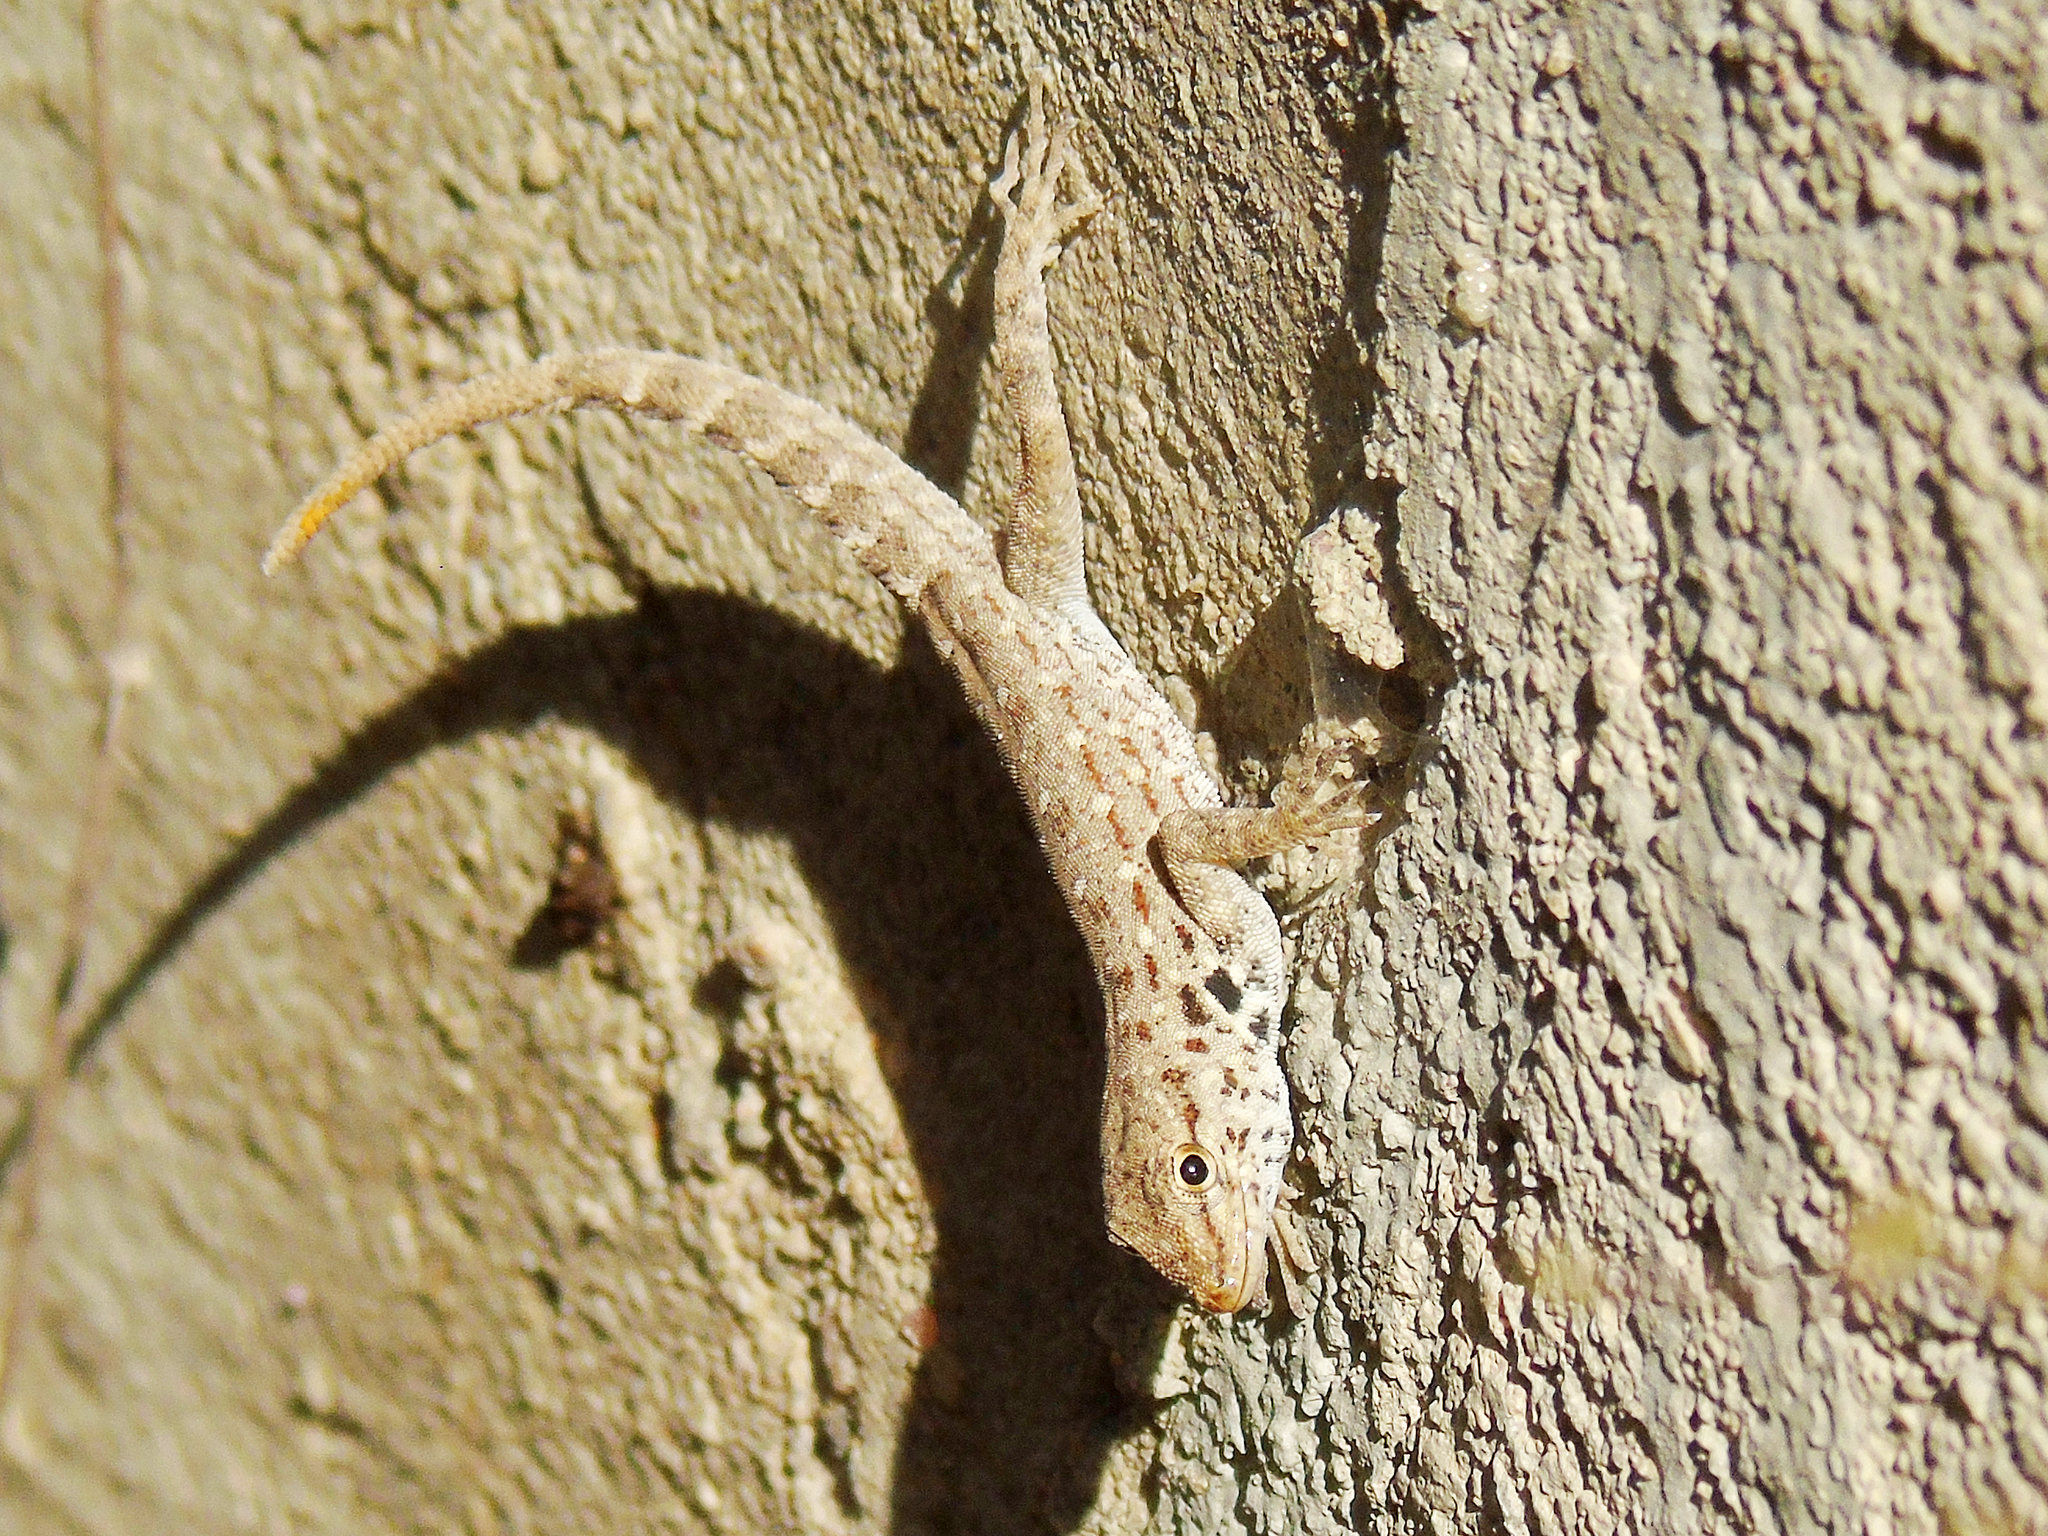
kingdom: Animalia
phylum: Chordata
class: Squamata
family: Sphaerodactylidae
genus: Pristurus
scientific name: Pristurus rupestris
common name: Blanford’s semaphore gecko
